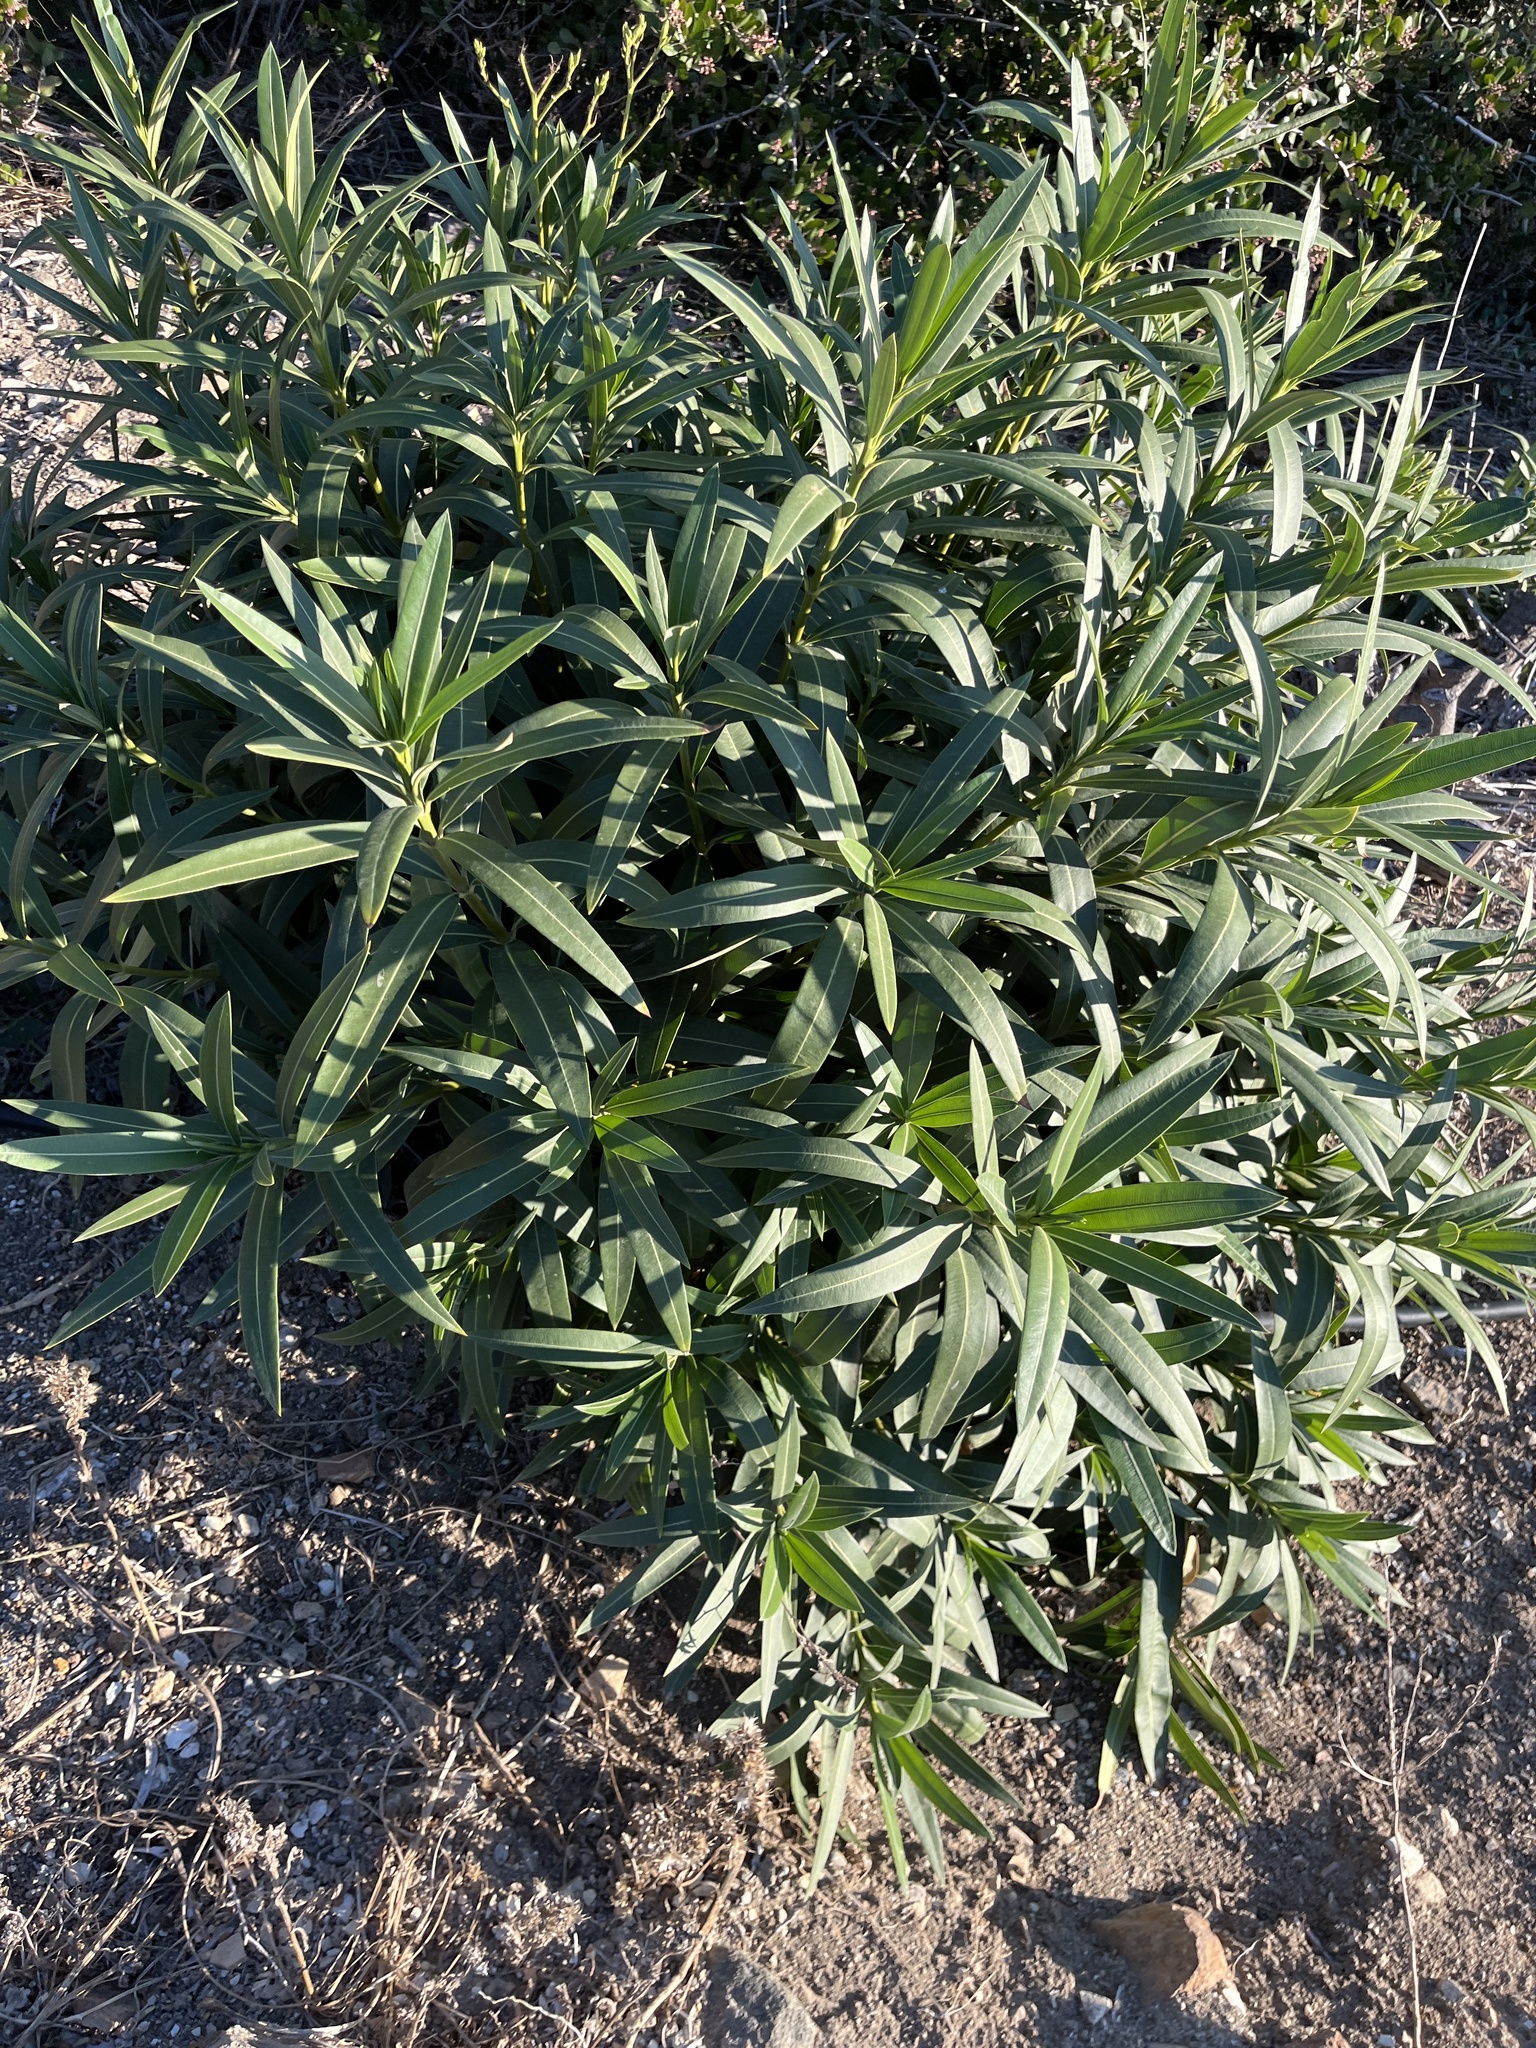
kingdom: Plantae
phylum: Tracheophyta
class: Magnoliopsida
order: Gentianales
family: Apocynaceae
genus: Nerium
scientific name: Nerium oleander
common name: Oleander
